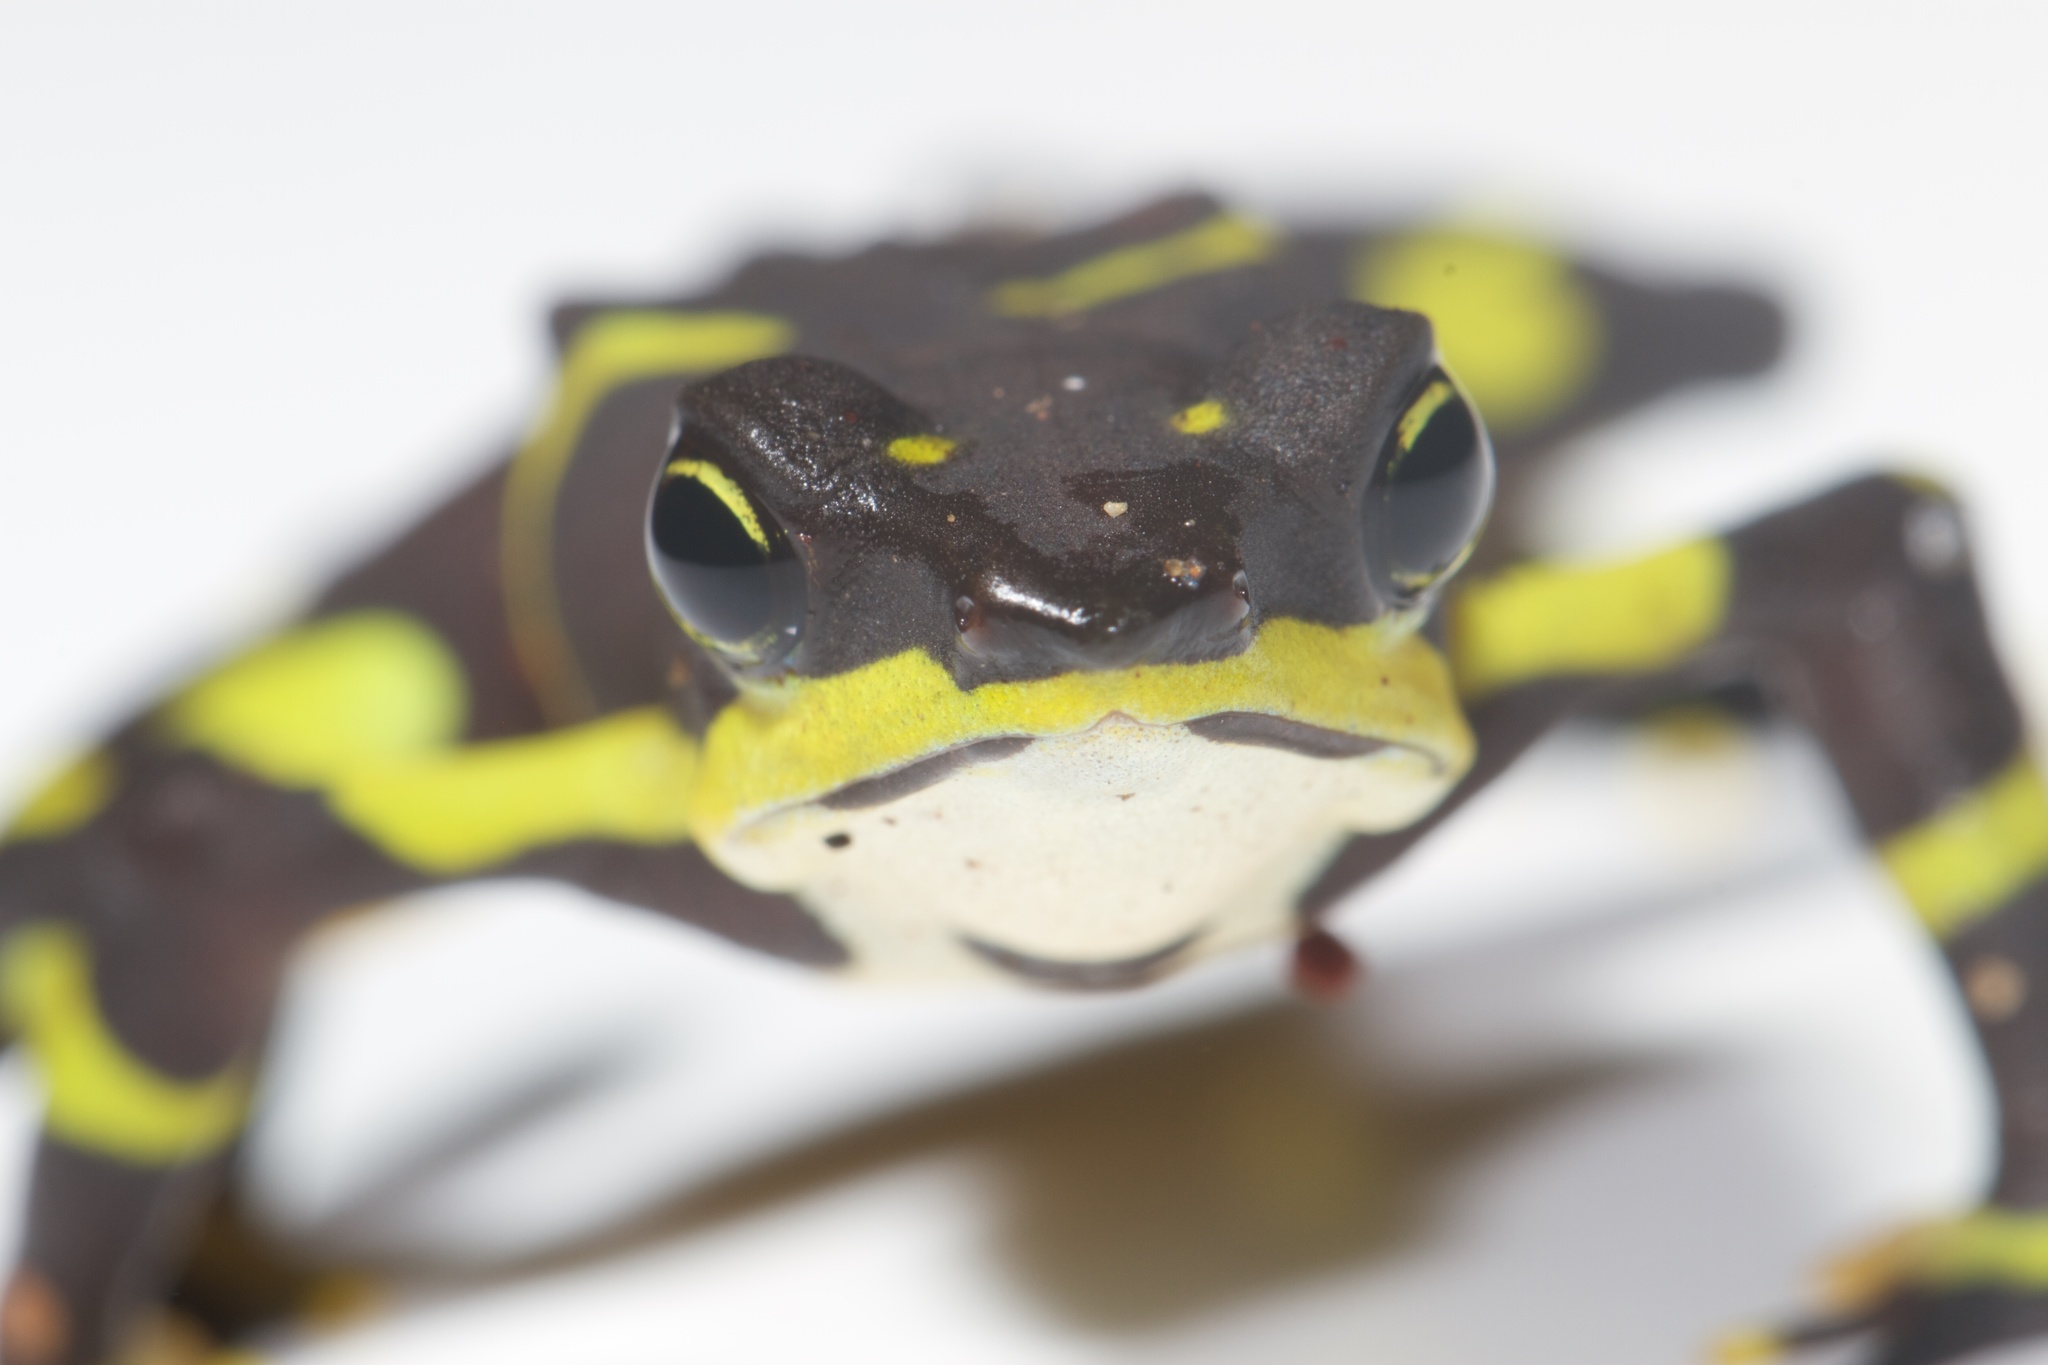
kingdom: Animalia
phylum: Chordata
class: Amphibia
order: Anura
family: Bufonidae
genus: Atelopus
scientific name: Atelopus limosus
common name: Limosa harlequin frog
